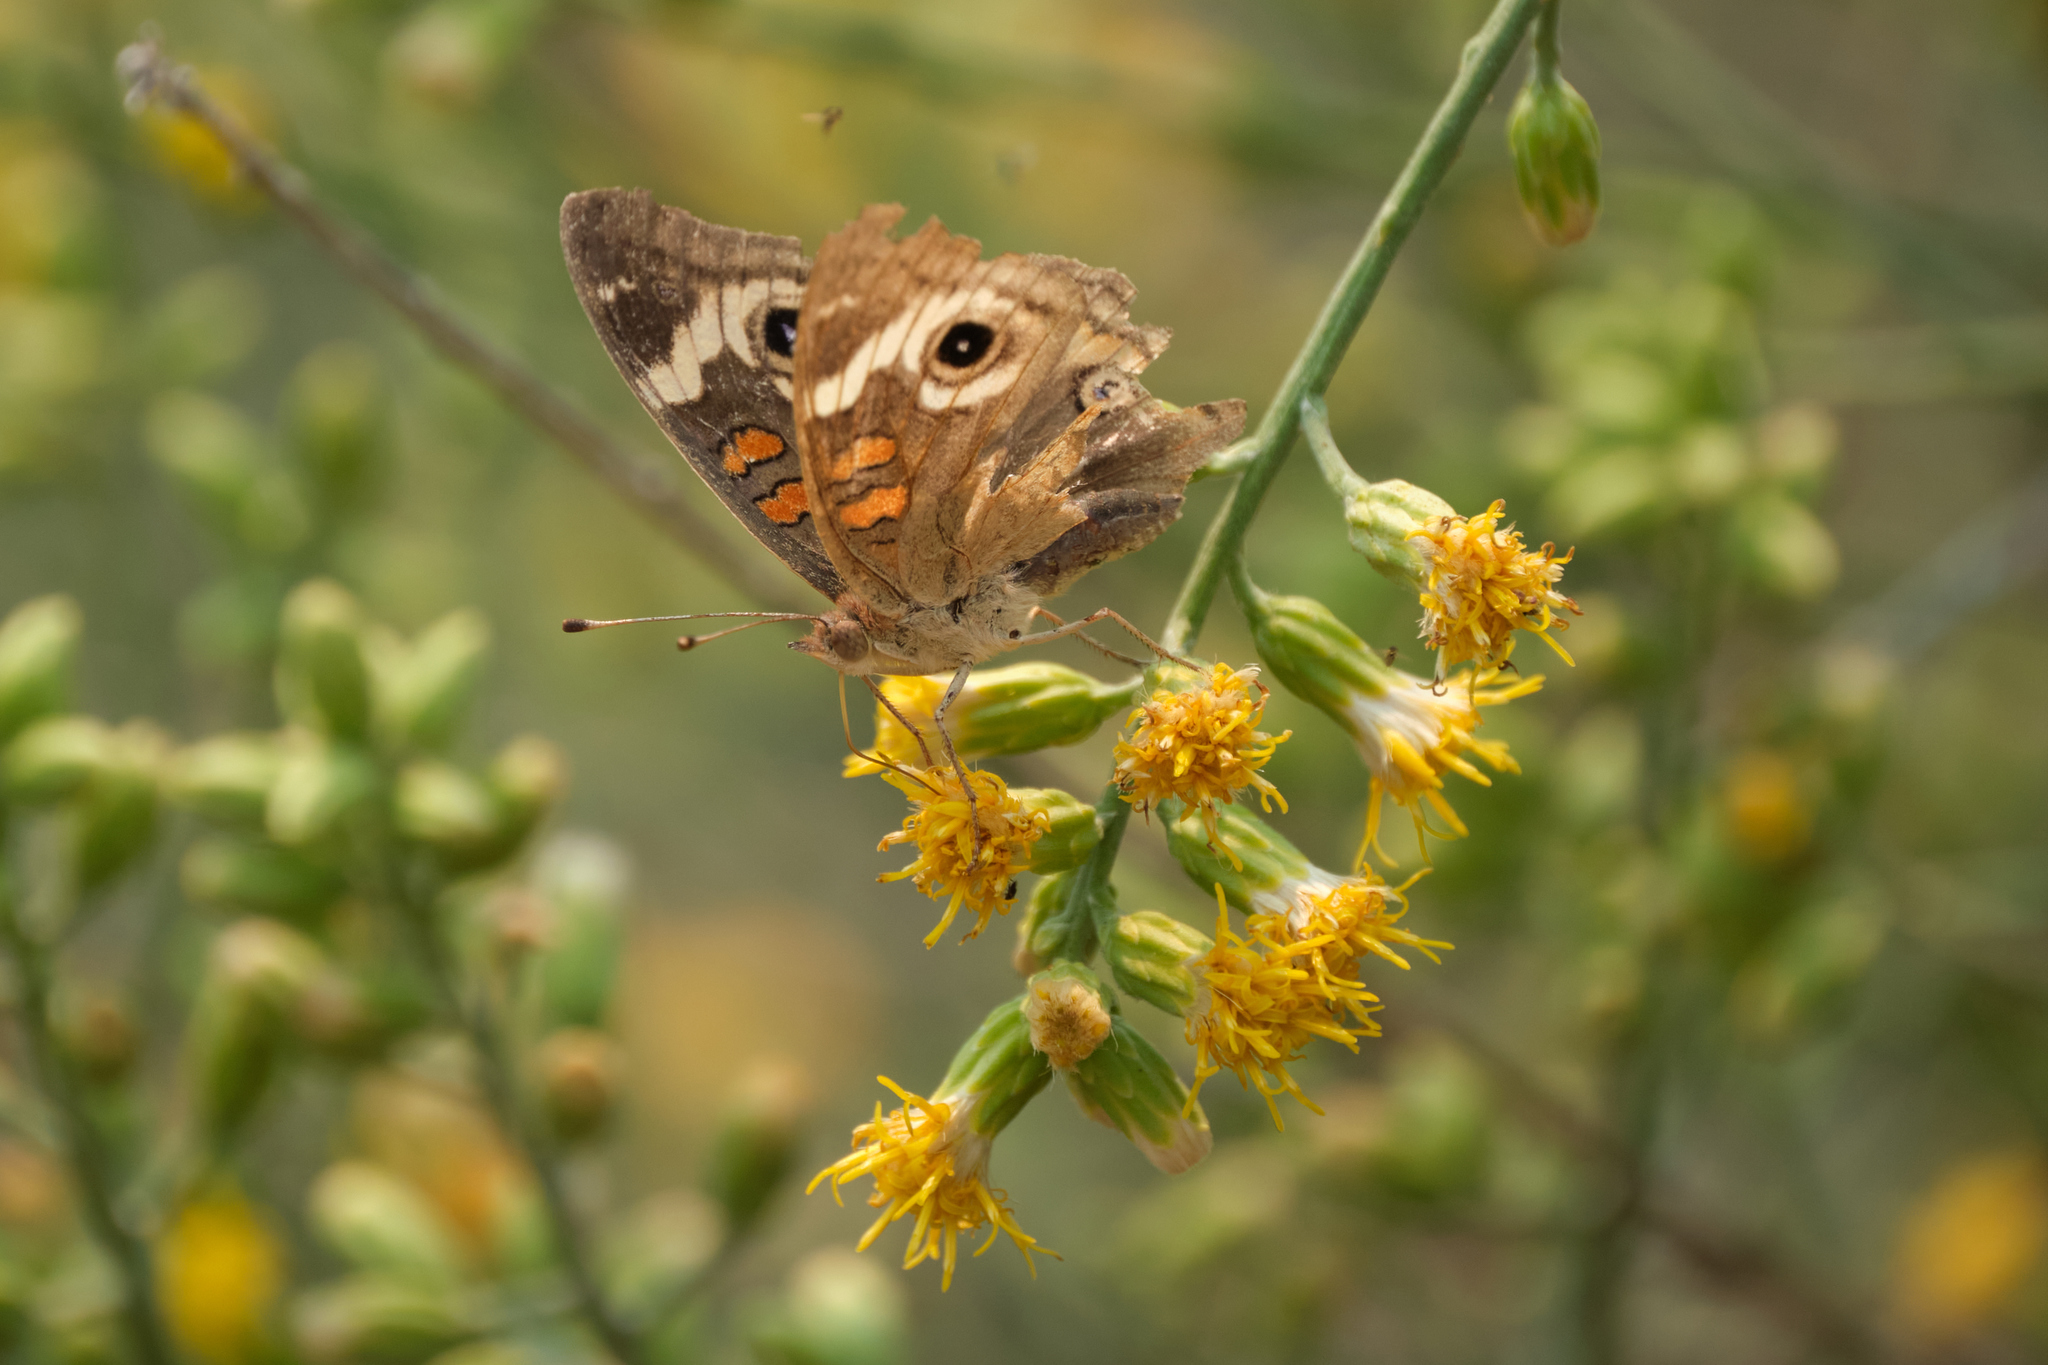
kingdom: Animalia
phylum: Arthropoda
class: Insecta
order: Lepidoptera
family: Nymphalidae
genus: Junonia
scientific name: Junonia grisea
